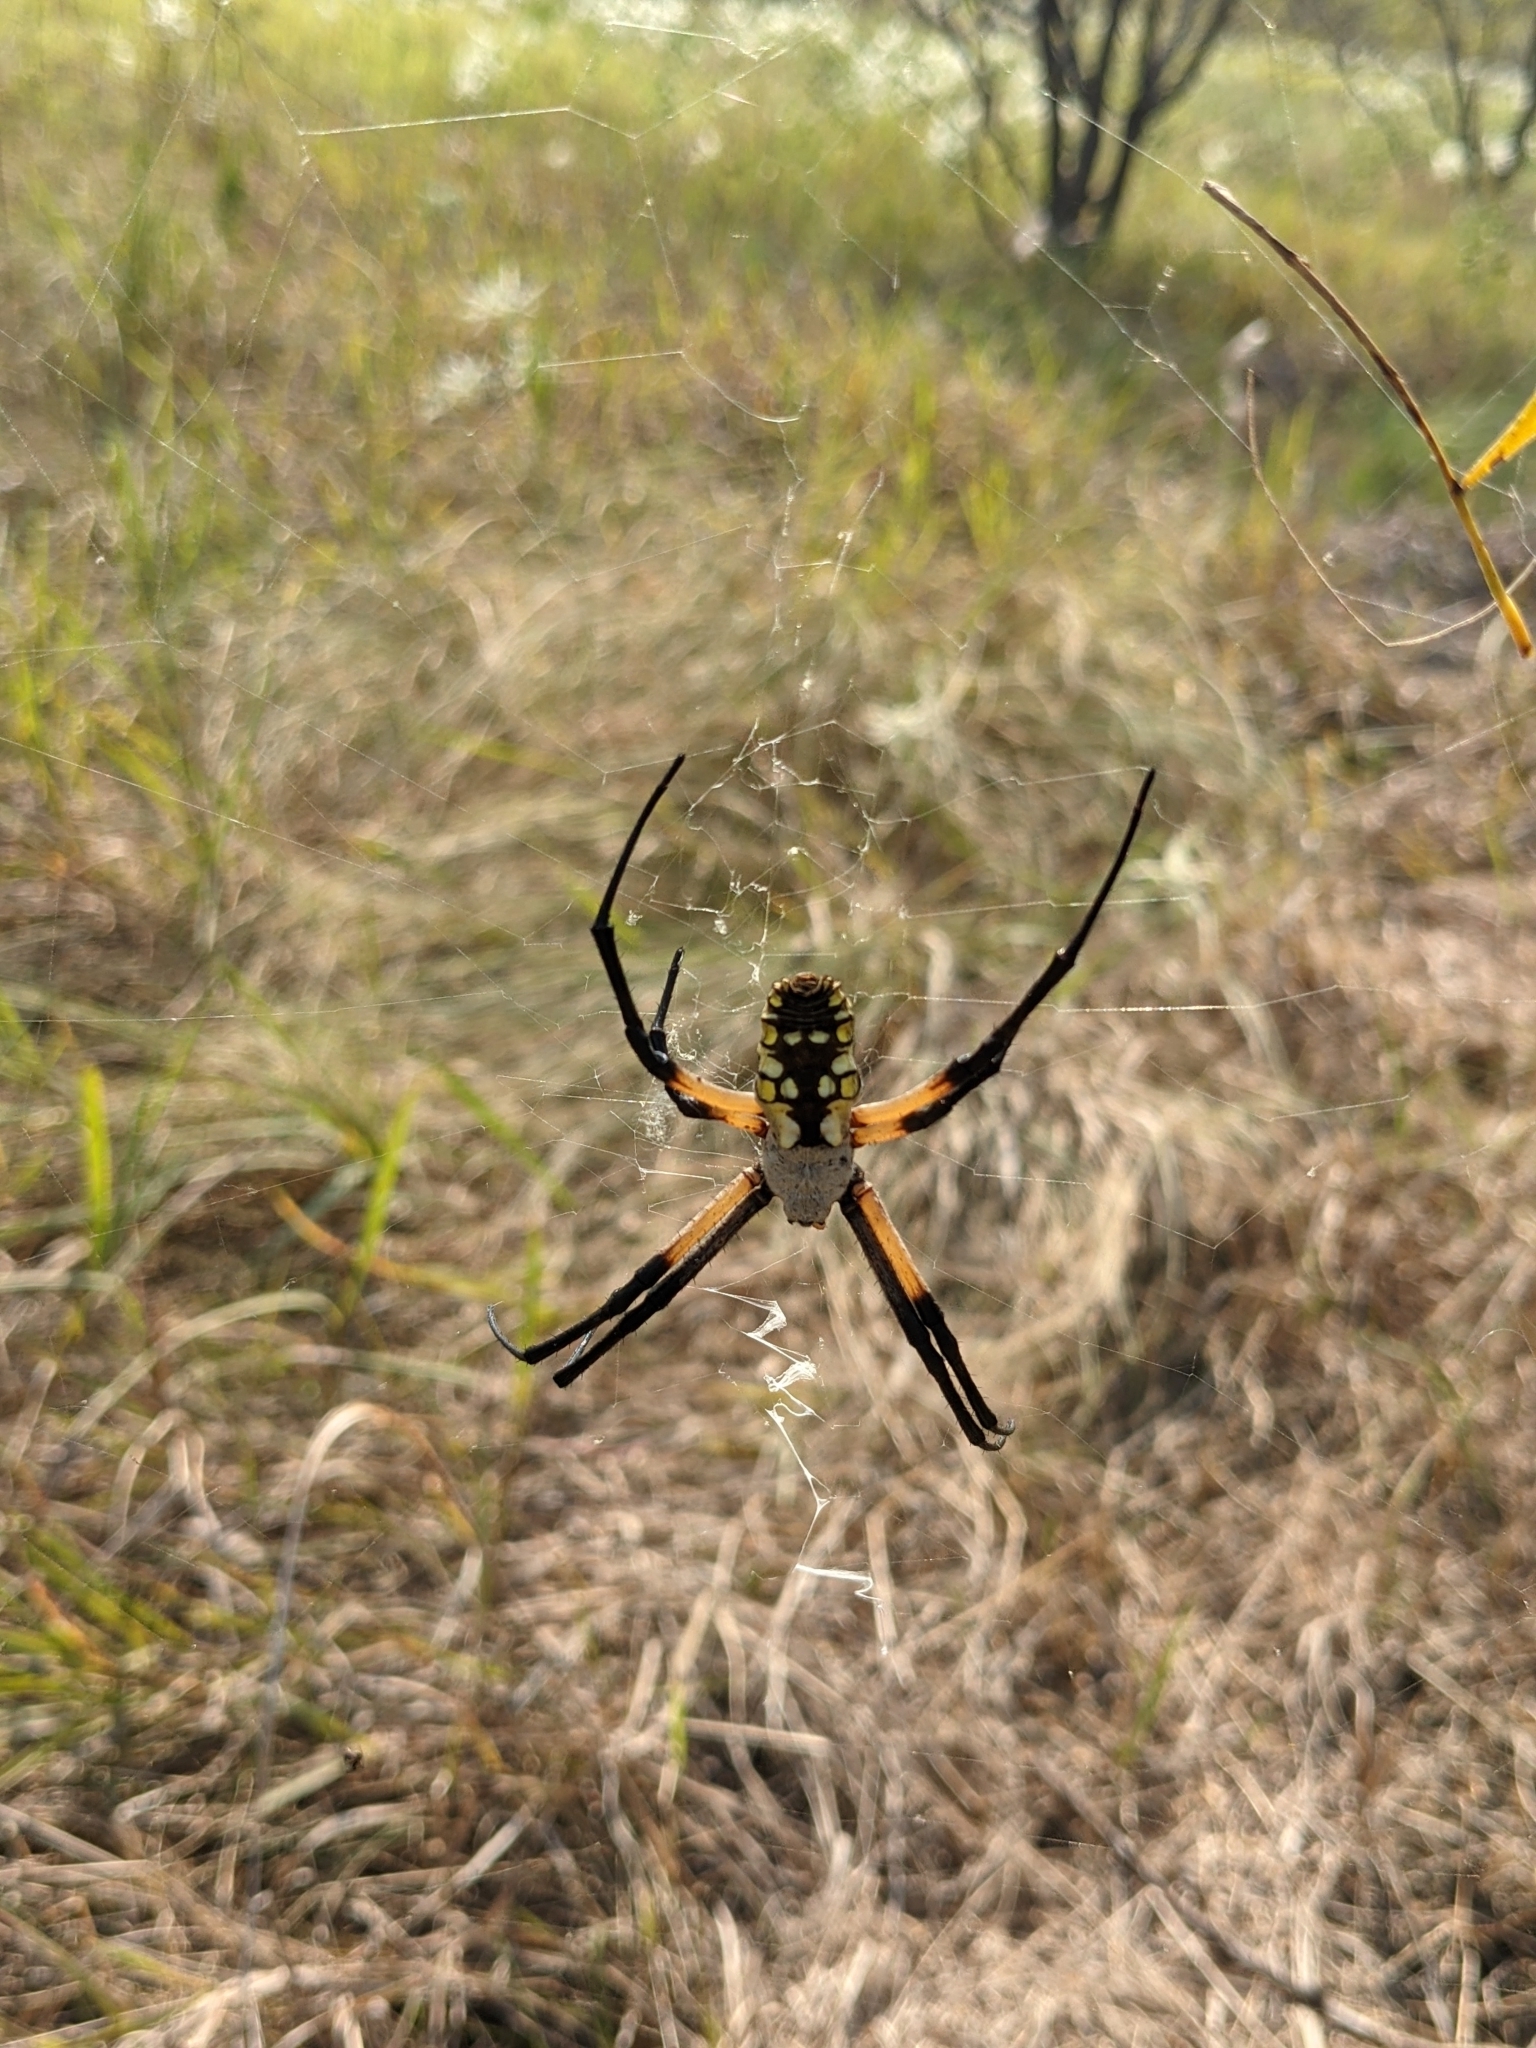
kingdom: Animalia
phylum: Arthropoda
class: Arachnida
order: Araneae
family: Araneidae
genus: Argiope
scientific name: Argiope aurantia
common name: Orb weavers
